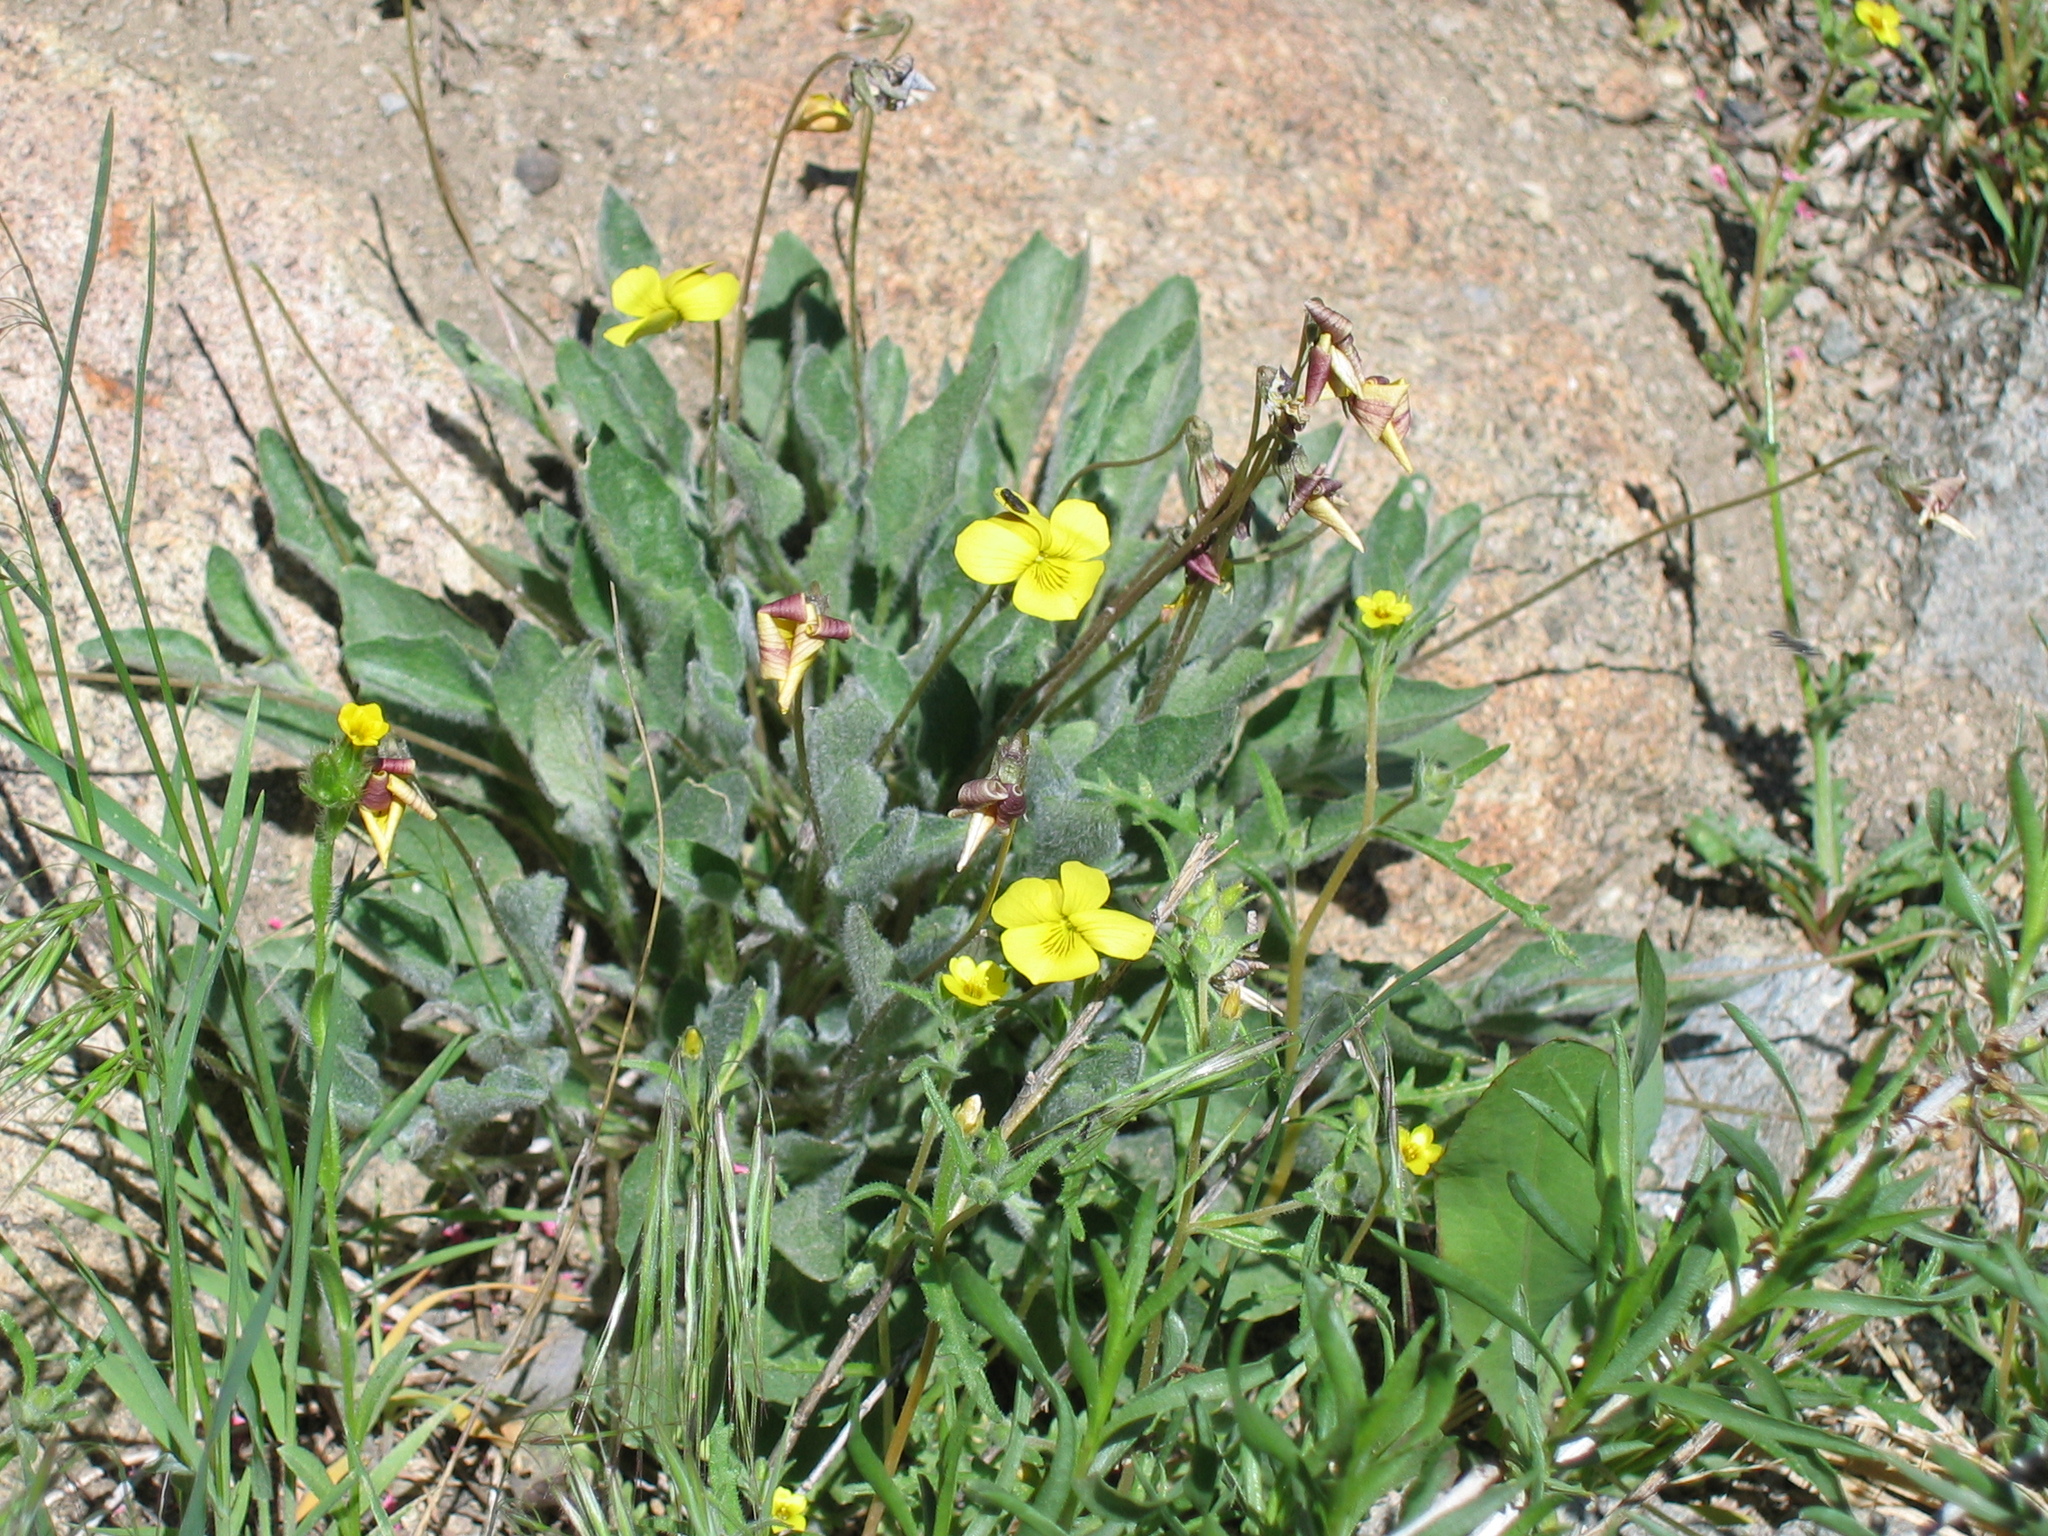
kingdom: Plantae
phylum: Tracheophyta
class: Magnoliopsida
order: Malpighiales
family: Violaceae
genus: Viola
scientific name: Viola purpurea
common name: Pine violet
